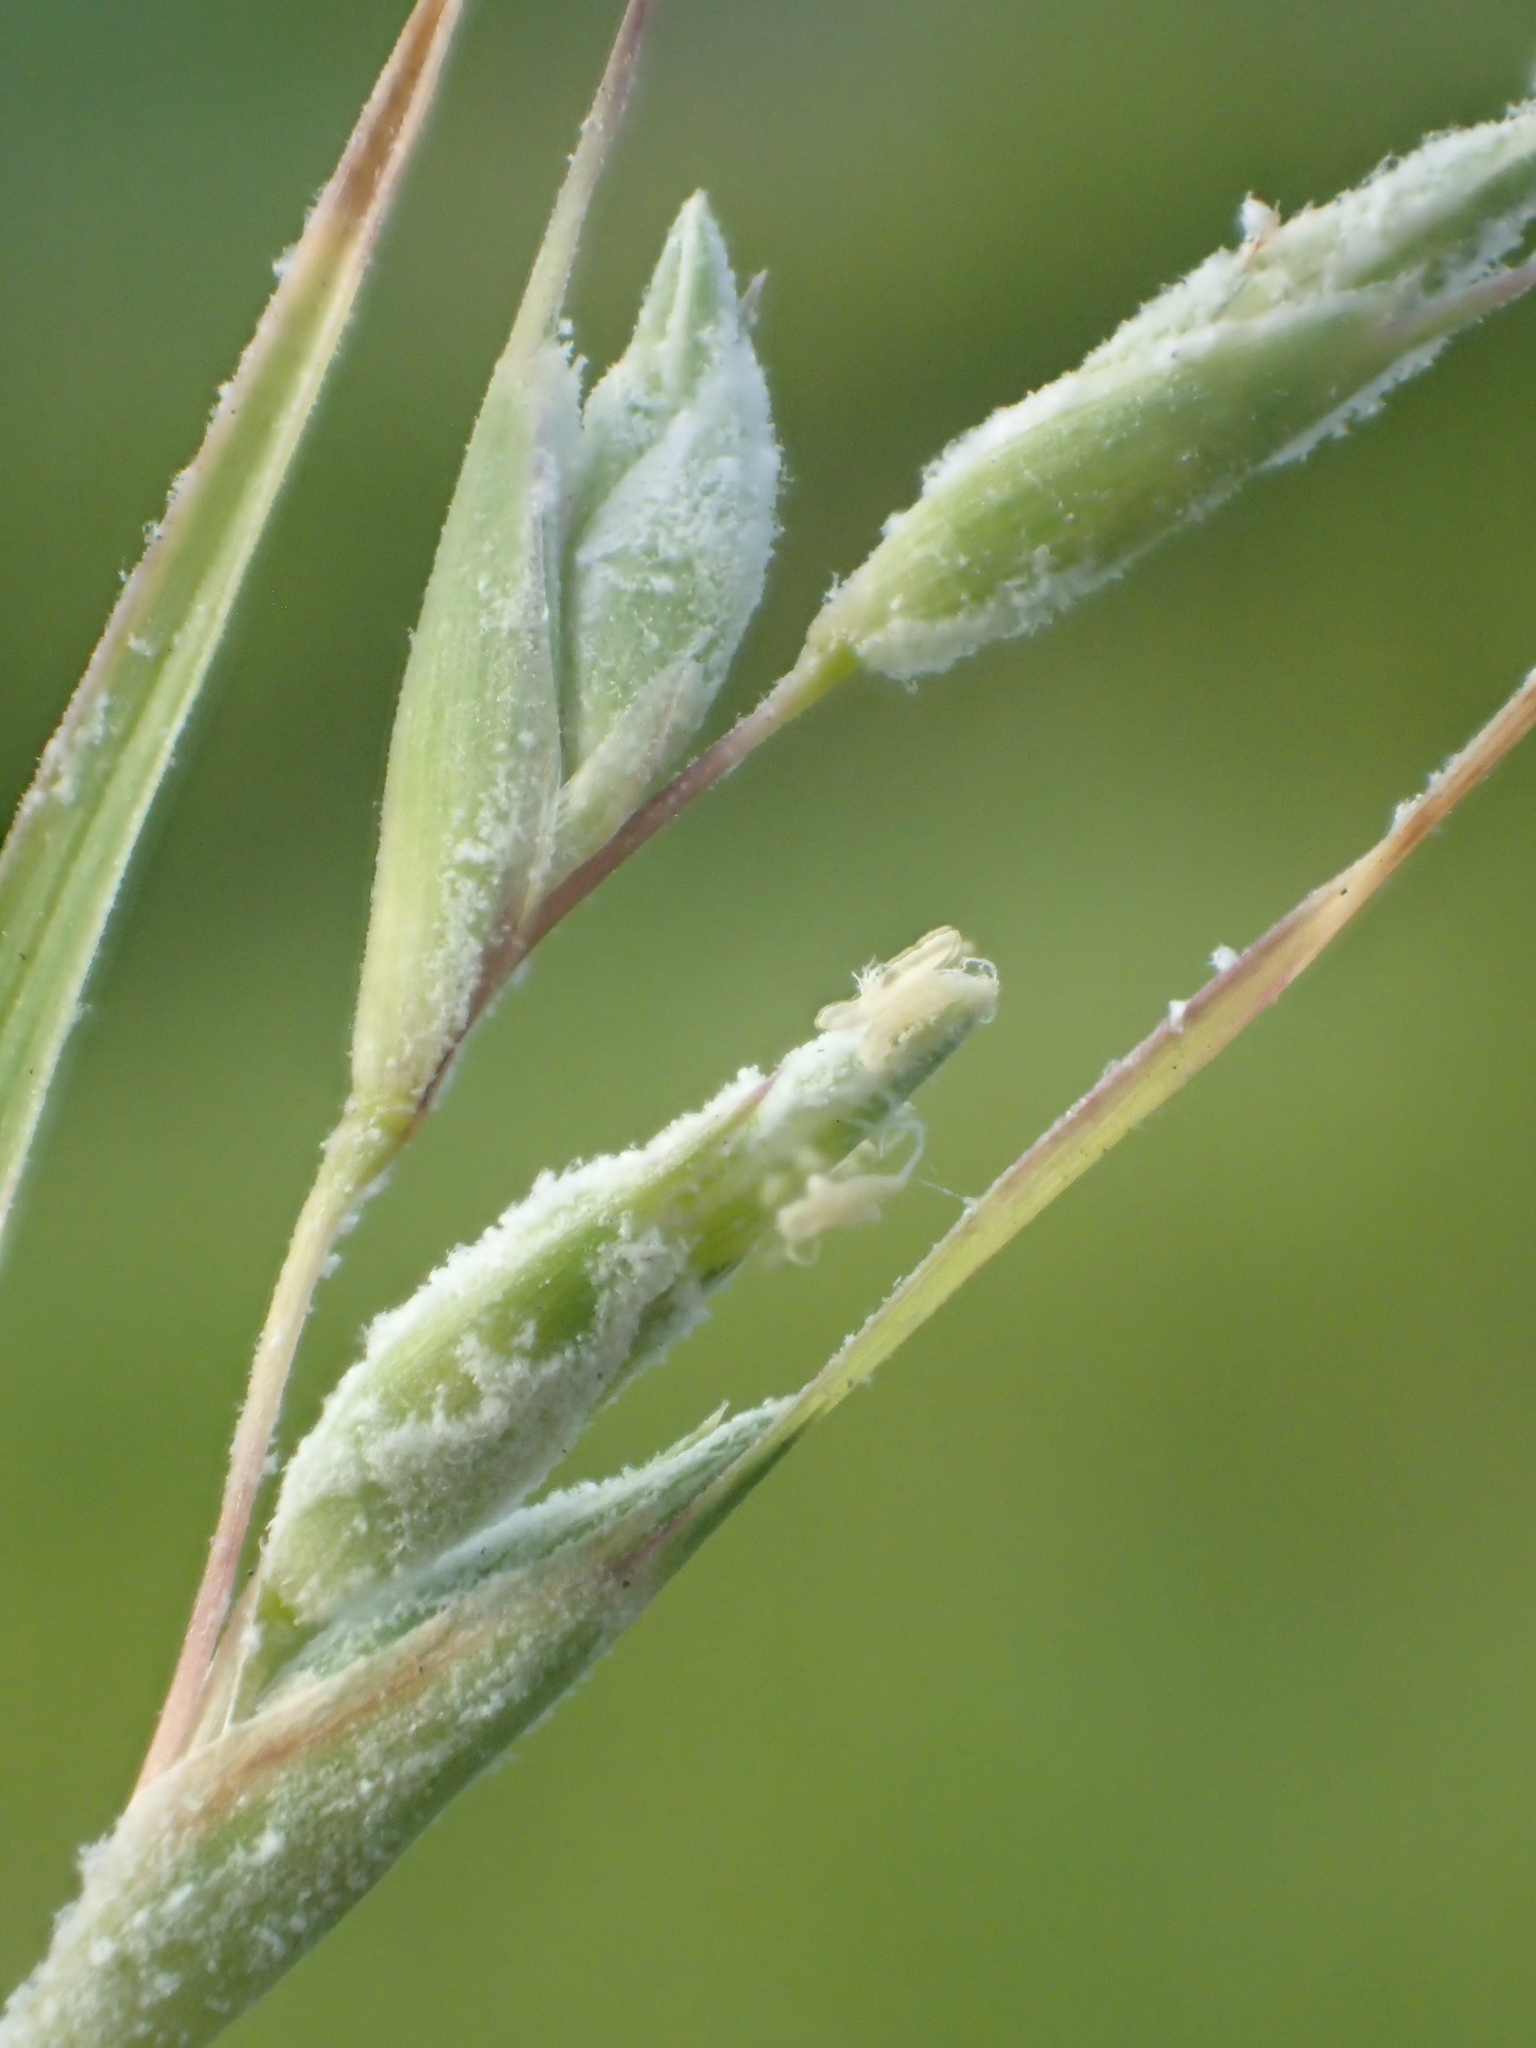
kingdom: Plantae
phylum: Tracheophyta
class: Liliopsida
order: Poales
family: Poaceae
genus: Apluda
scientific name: Apluda mutica
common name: Mauritian grass
